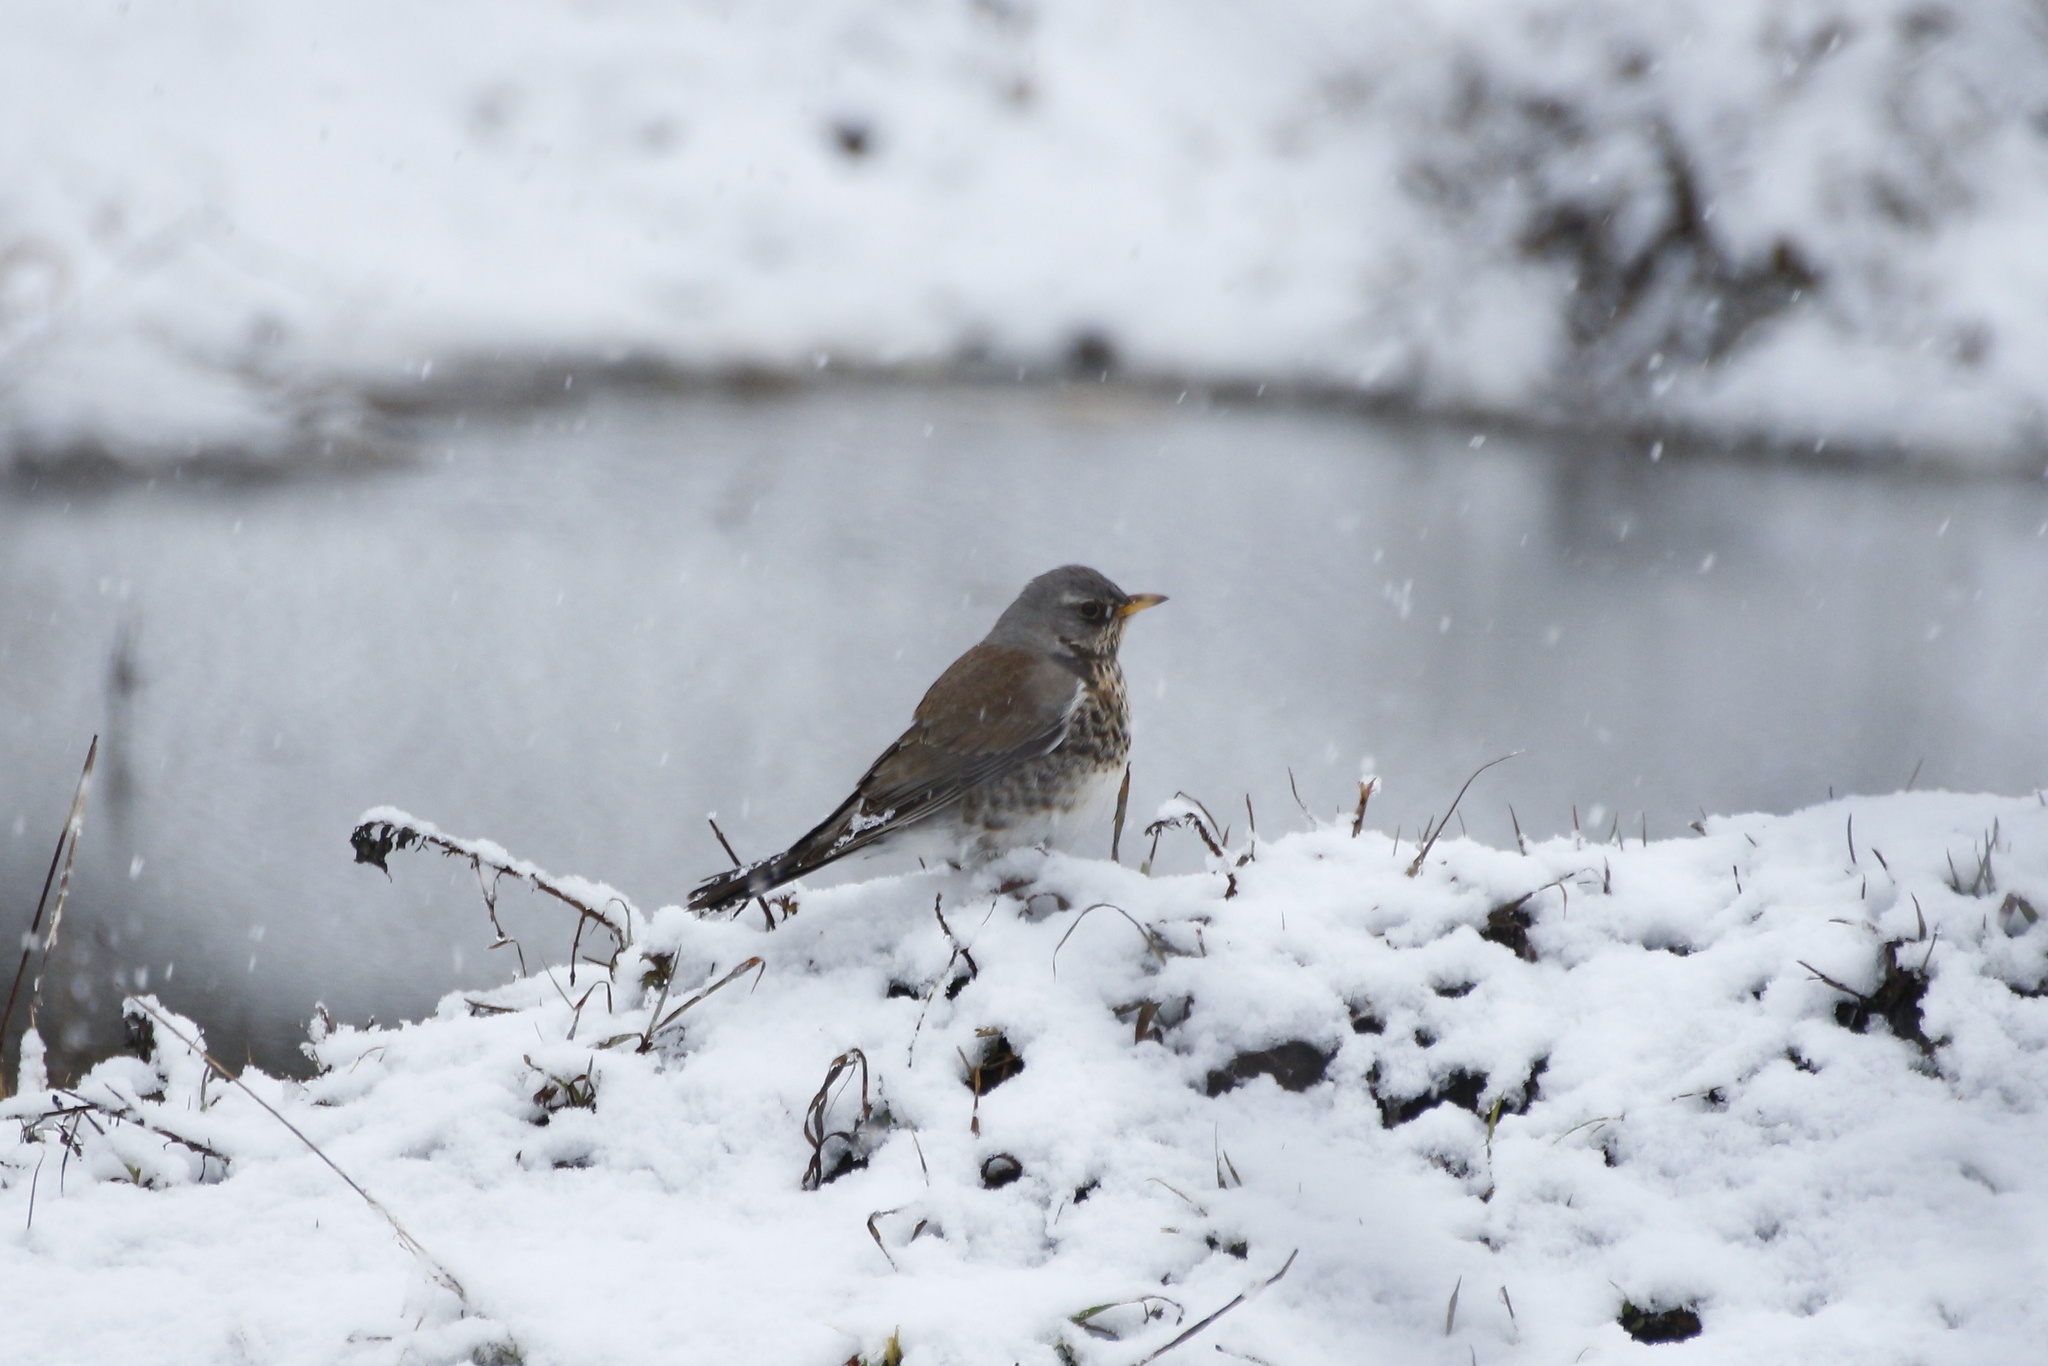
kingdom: Animalia
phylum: Chordata
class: Aves
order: Passeriformes
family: Turdidae
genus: Turdus
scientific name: Turdus pilaris
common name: Fieldfare
